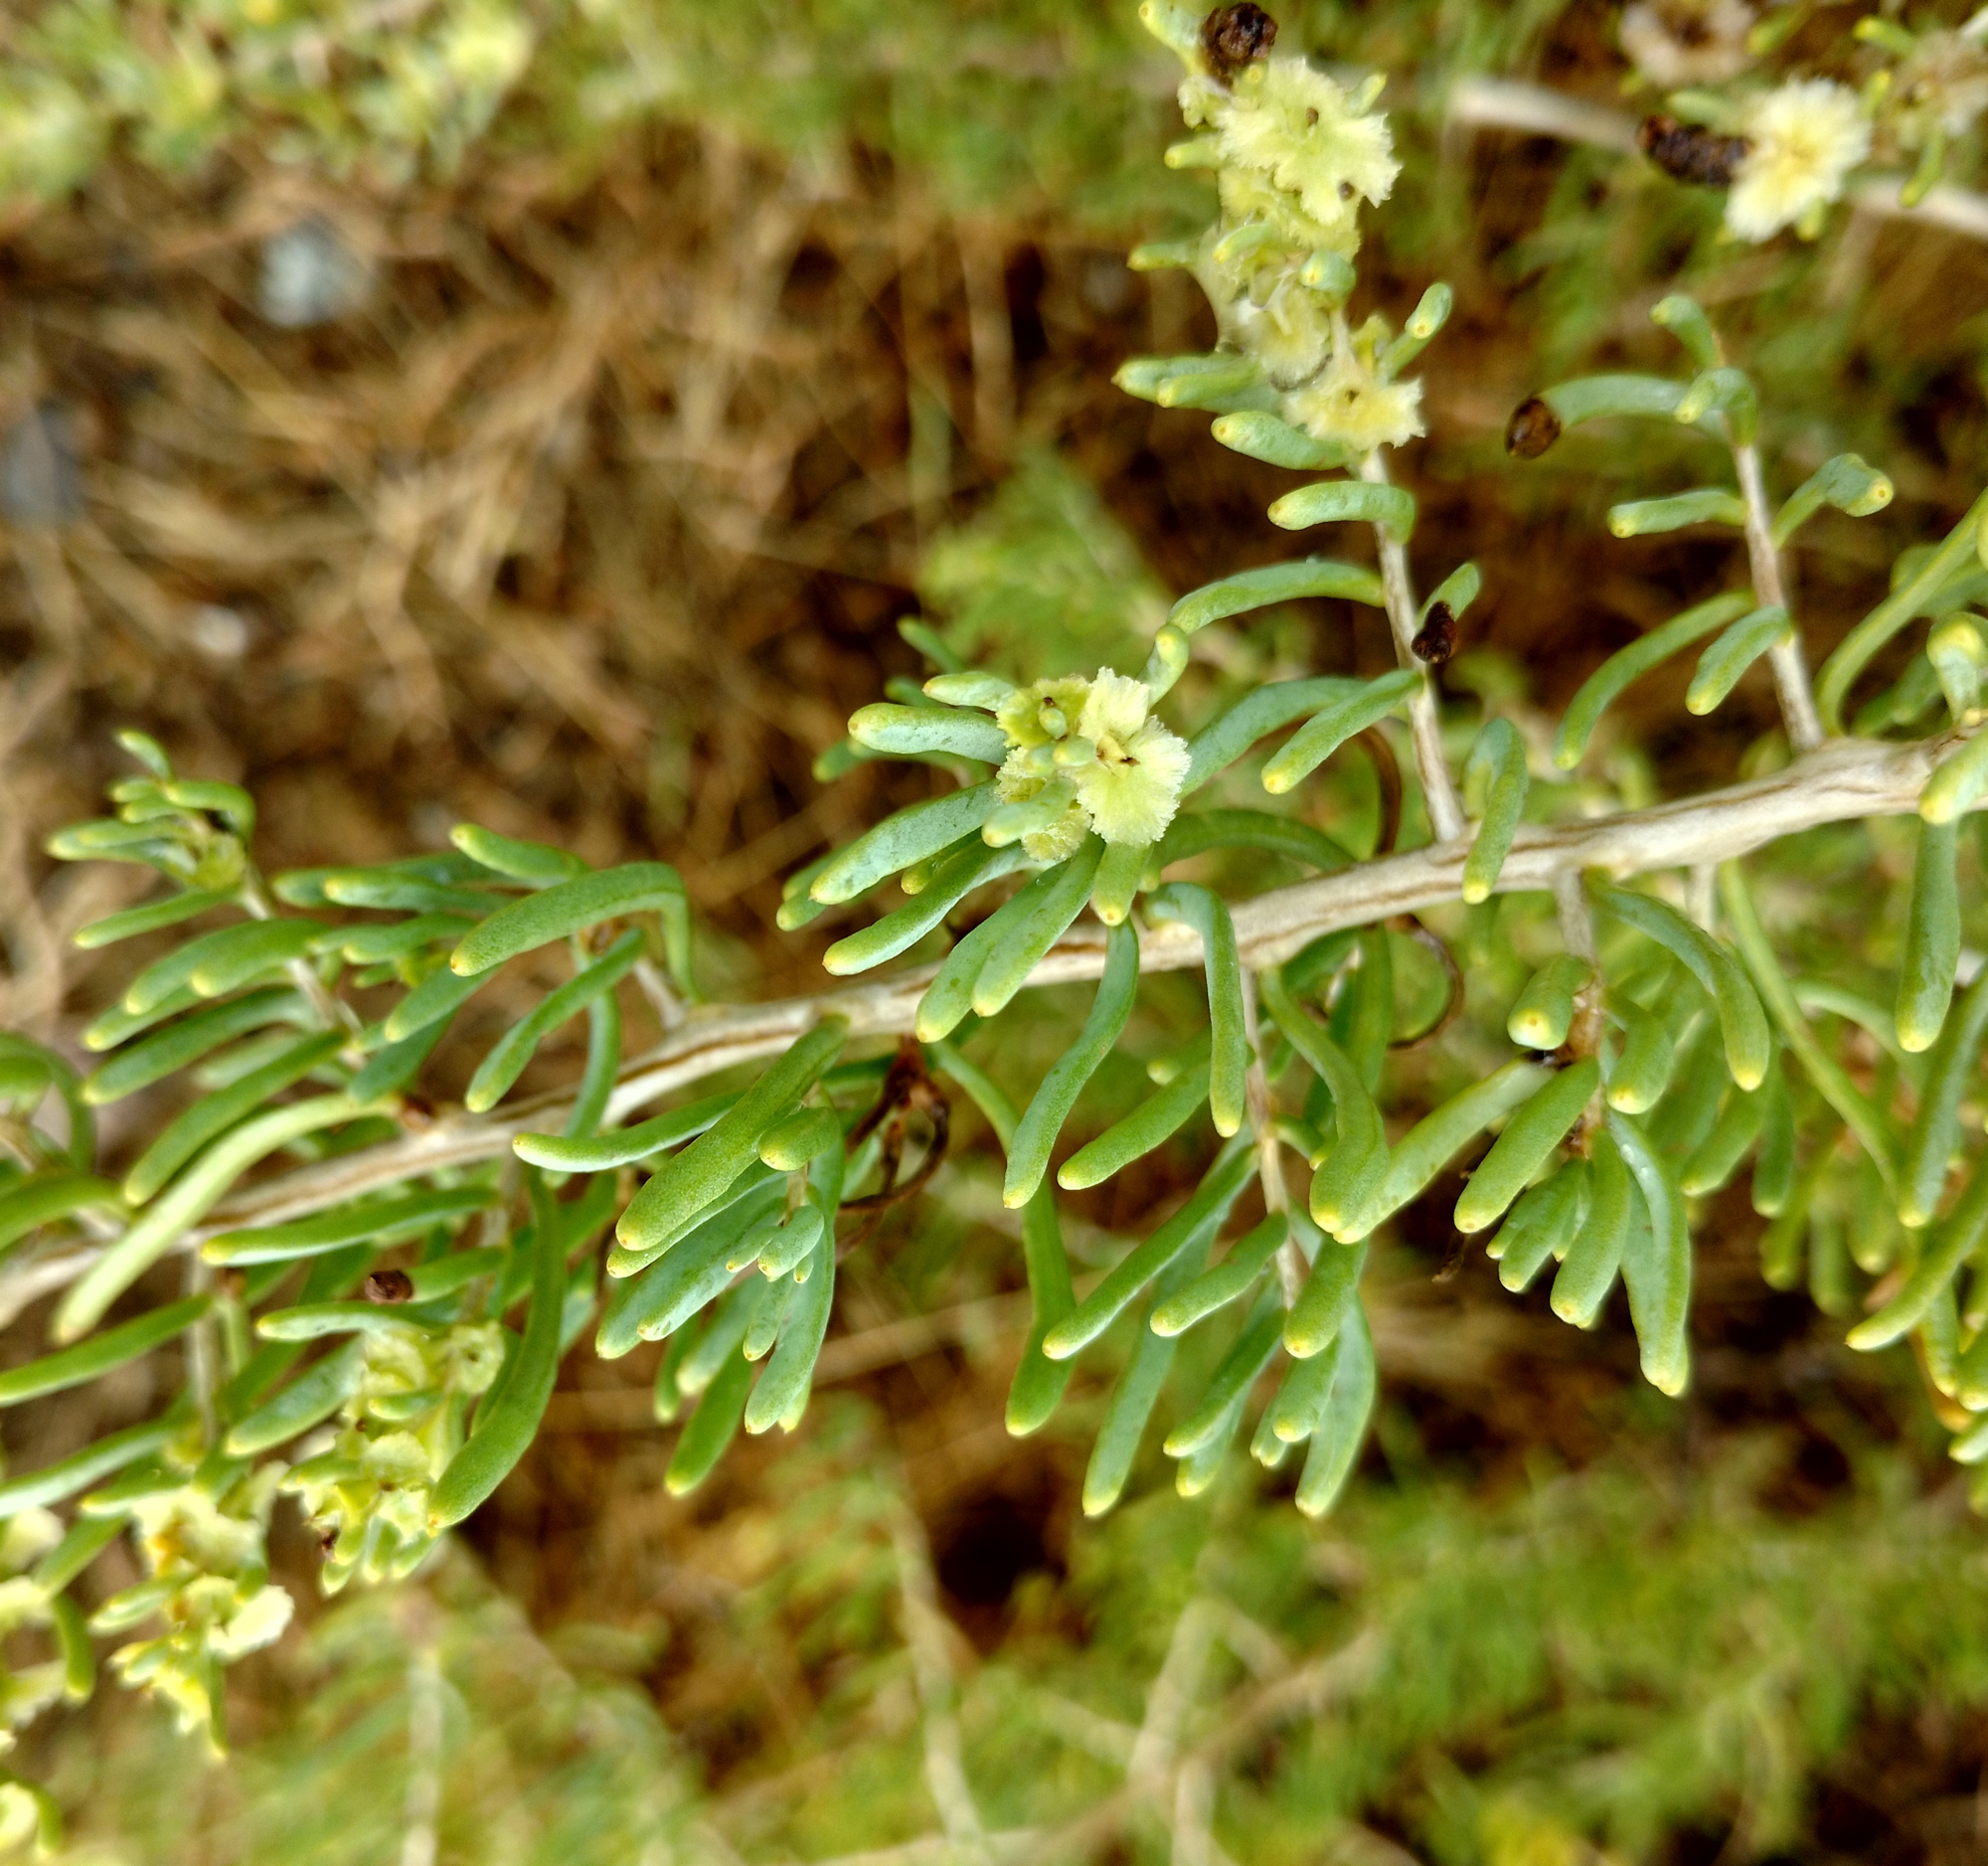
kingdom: Plantae
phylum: Tracheophyta
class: Magnoliopsida
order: Caryophyllales
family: Sarcobataceae
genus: Sarcobatus
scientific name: Sarcobatus vermiculatus
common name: Greasewood
